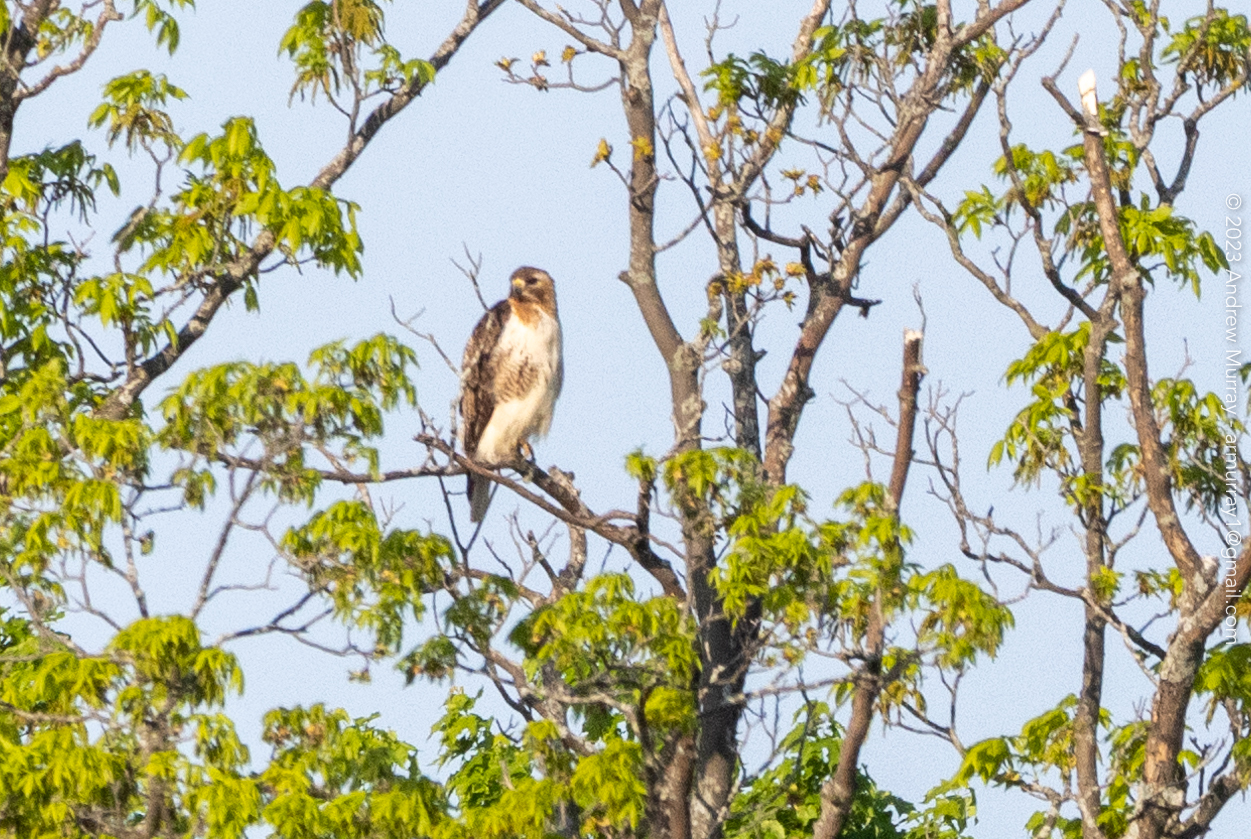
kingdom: Animalia
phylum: Chordata
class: Aves
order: Accipitriformes
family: Accipitridae
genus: Buteo
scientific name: Buteo jamaicensis
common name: Red-tailed hawk
